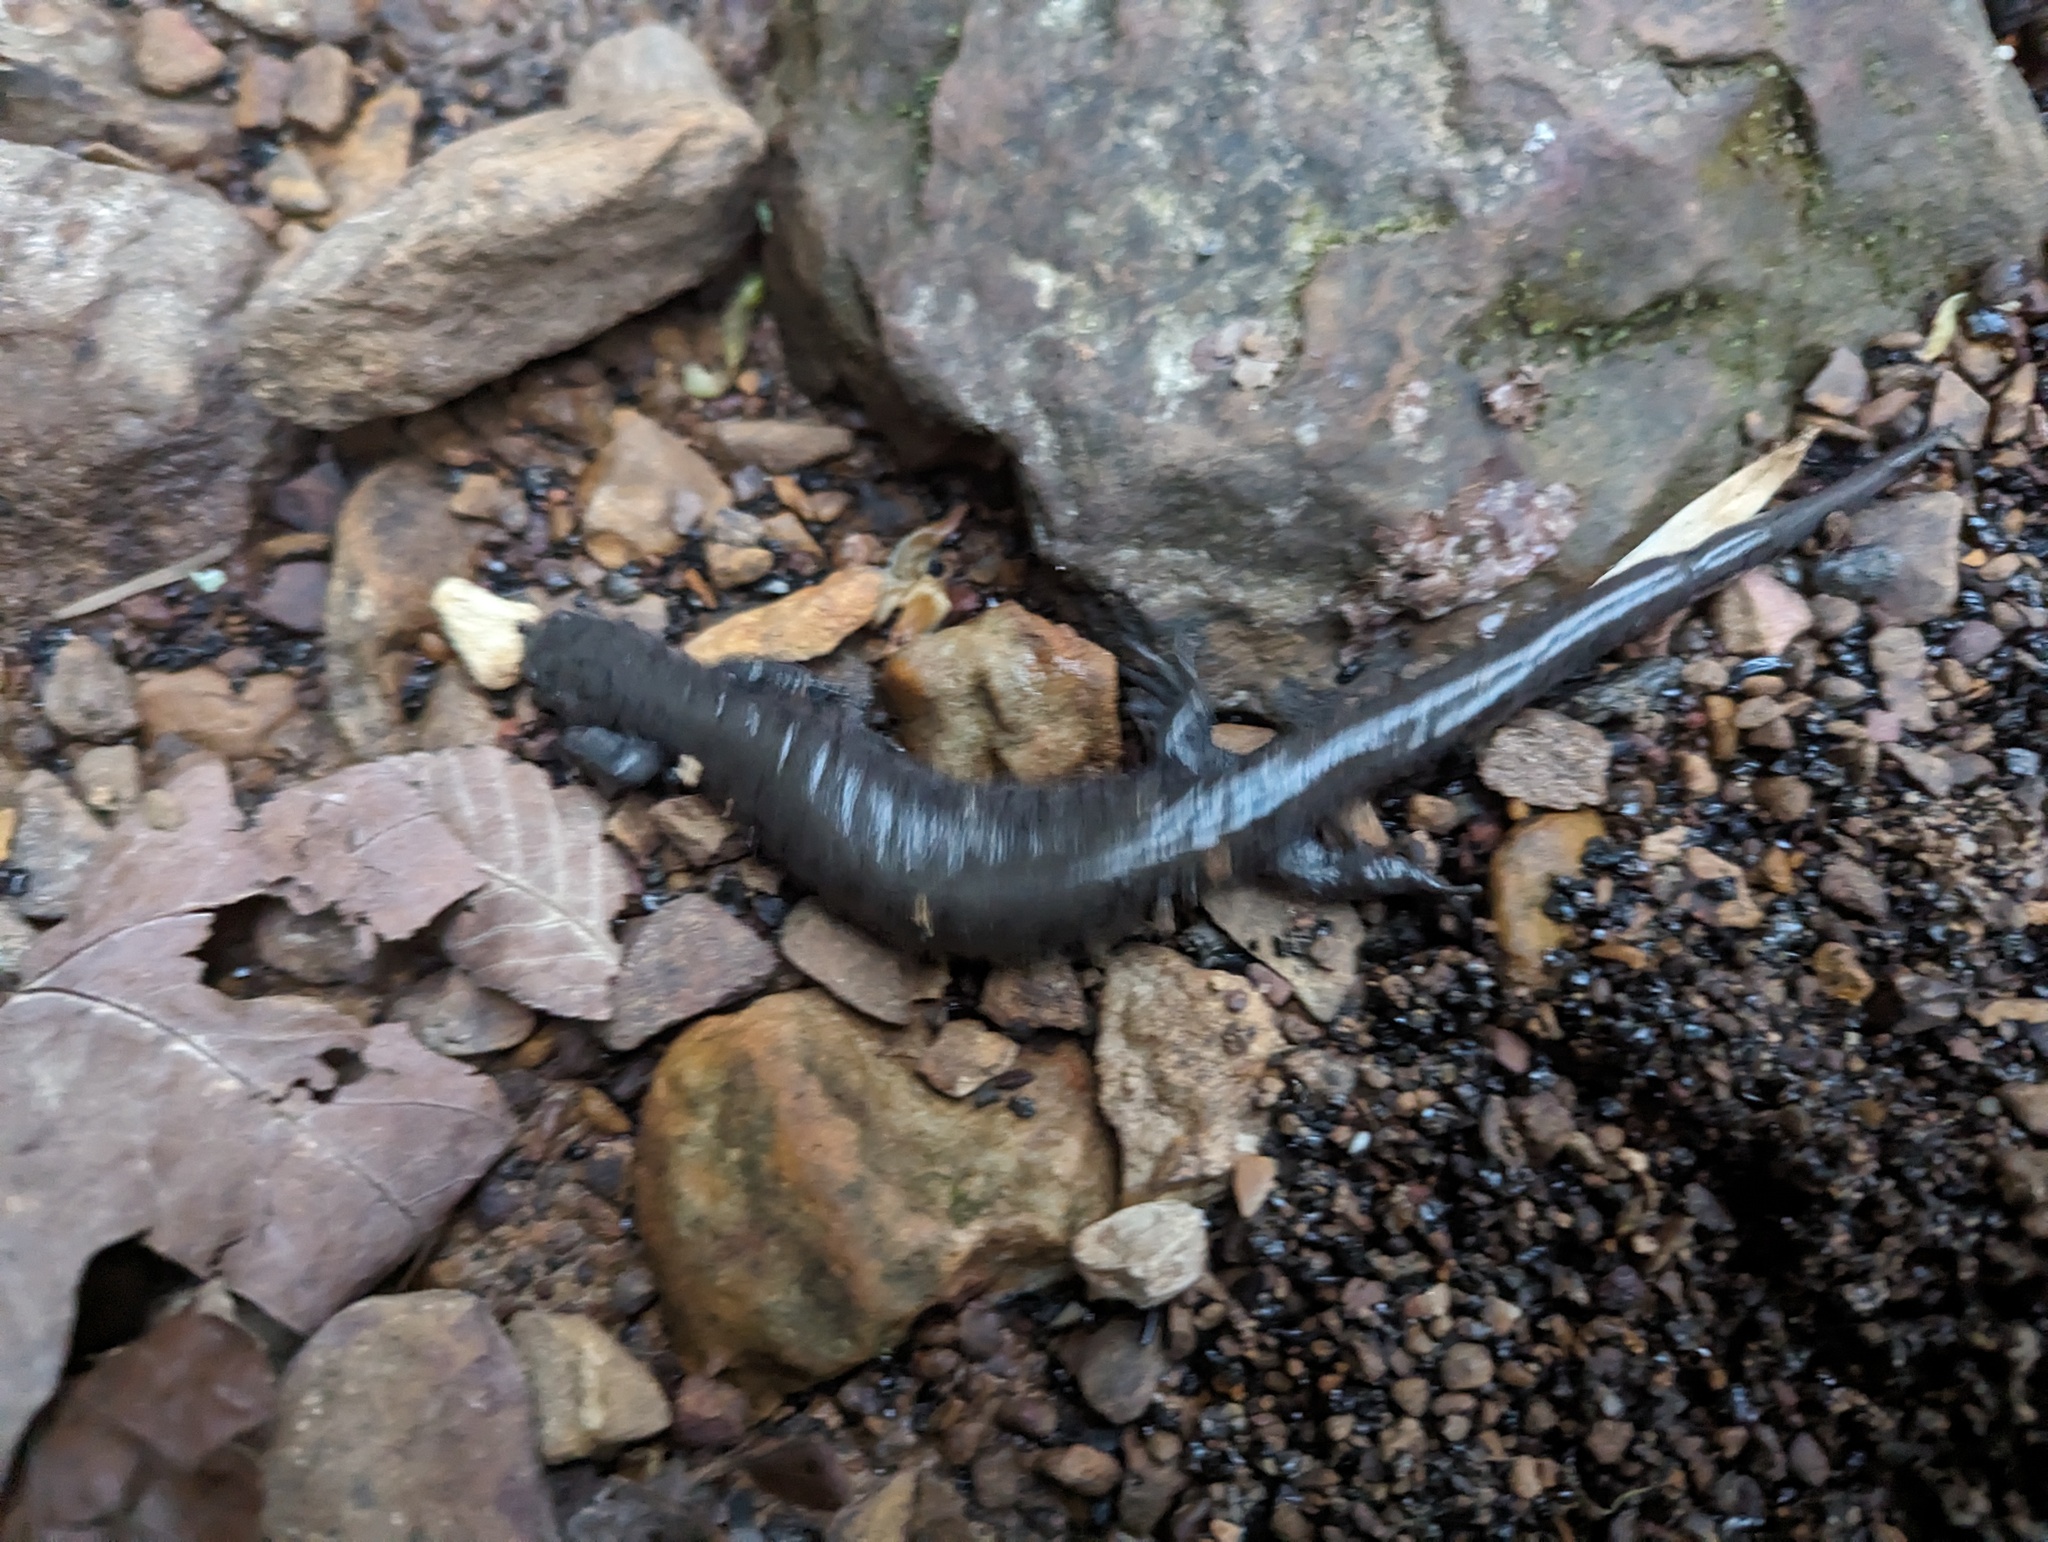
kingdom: Animalia
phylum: Chordata
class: Amphibia
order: Caudata
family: Ambystomatidae
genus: Ambystoma
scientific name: Ambystoma texanum
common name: Small-mouth salamander
